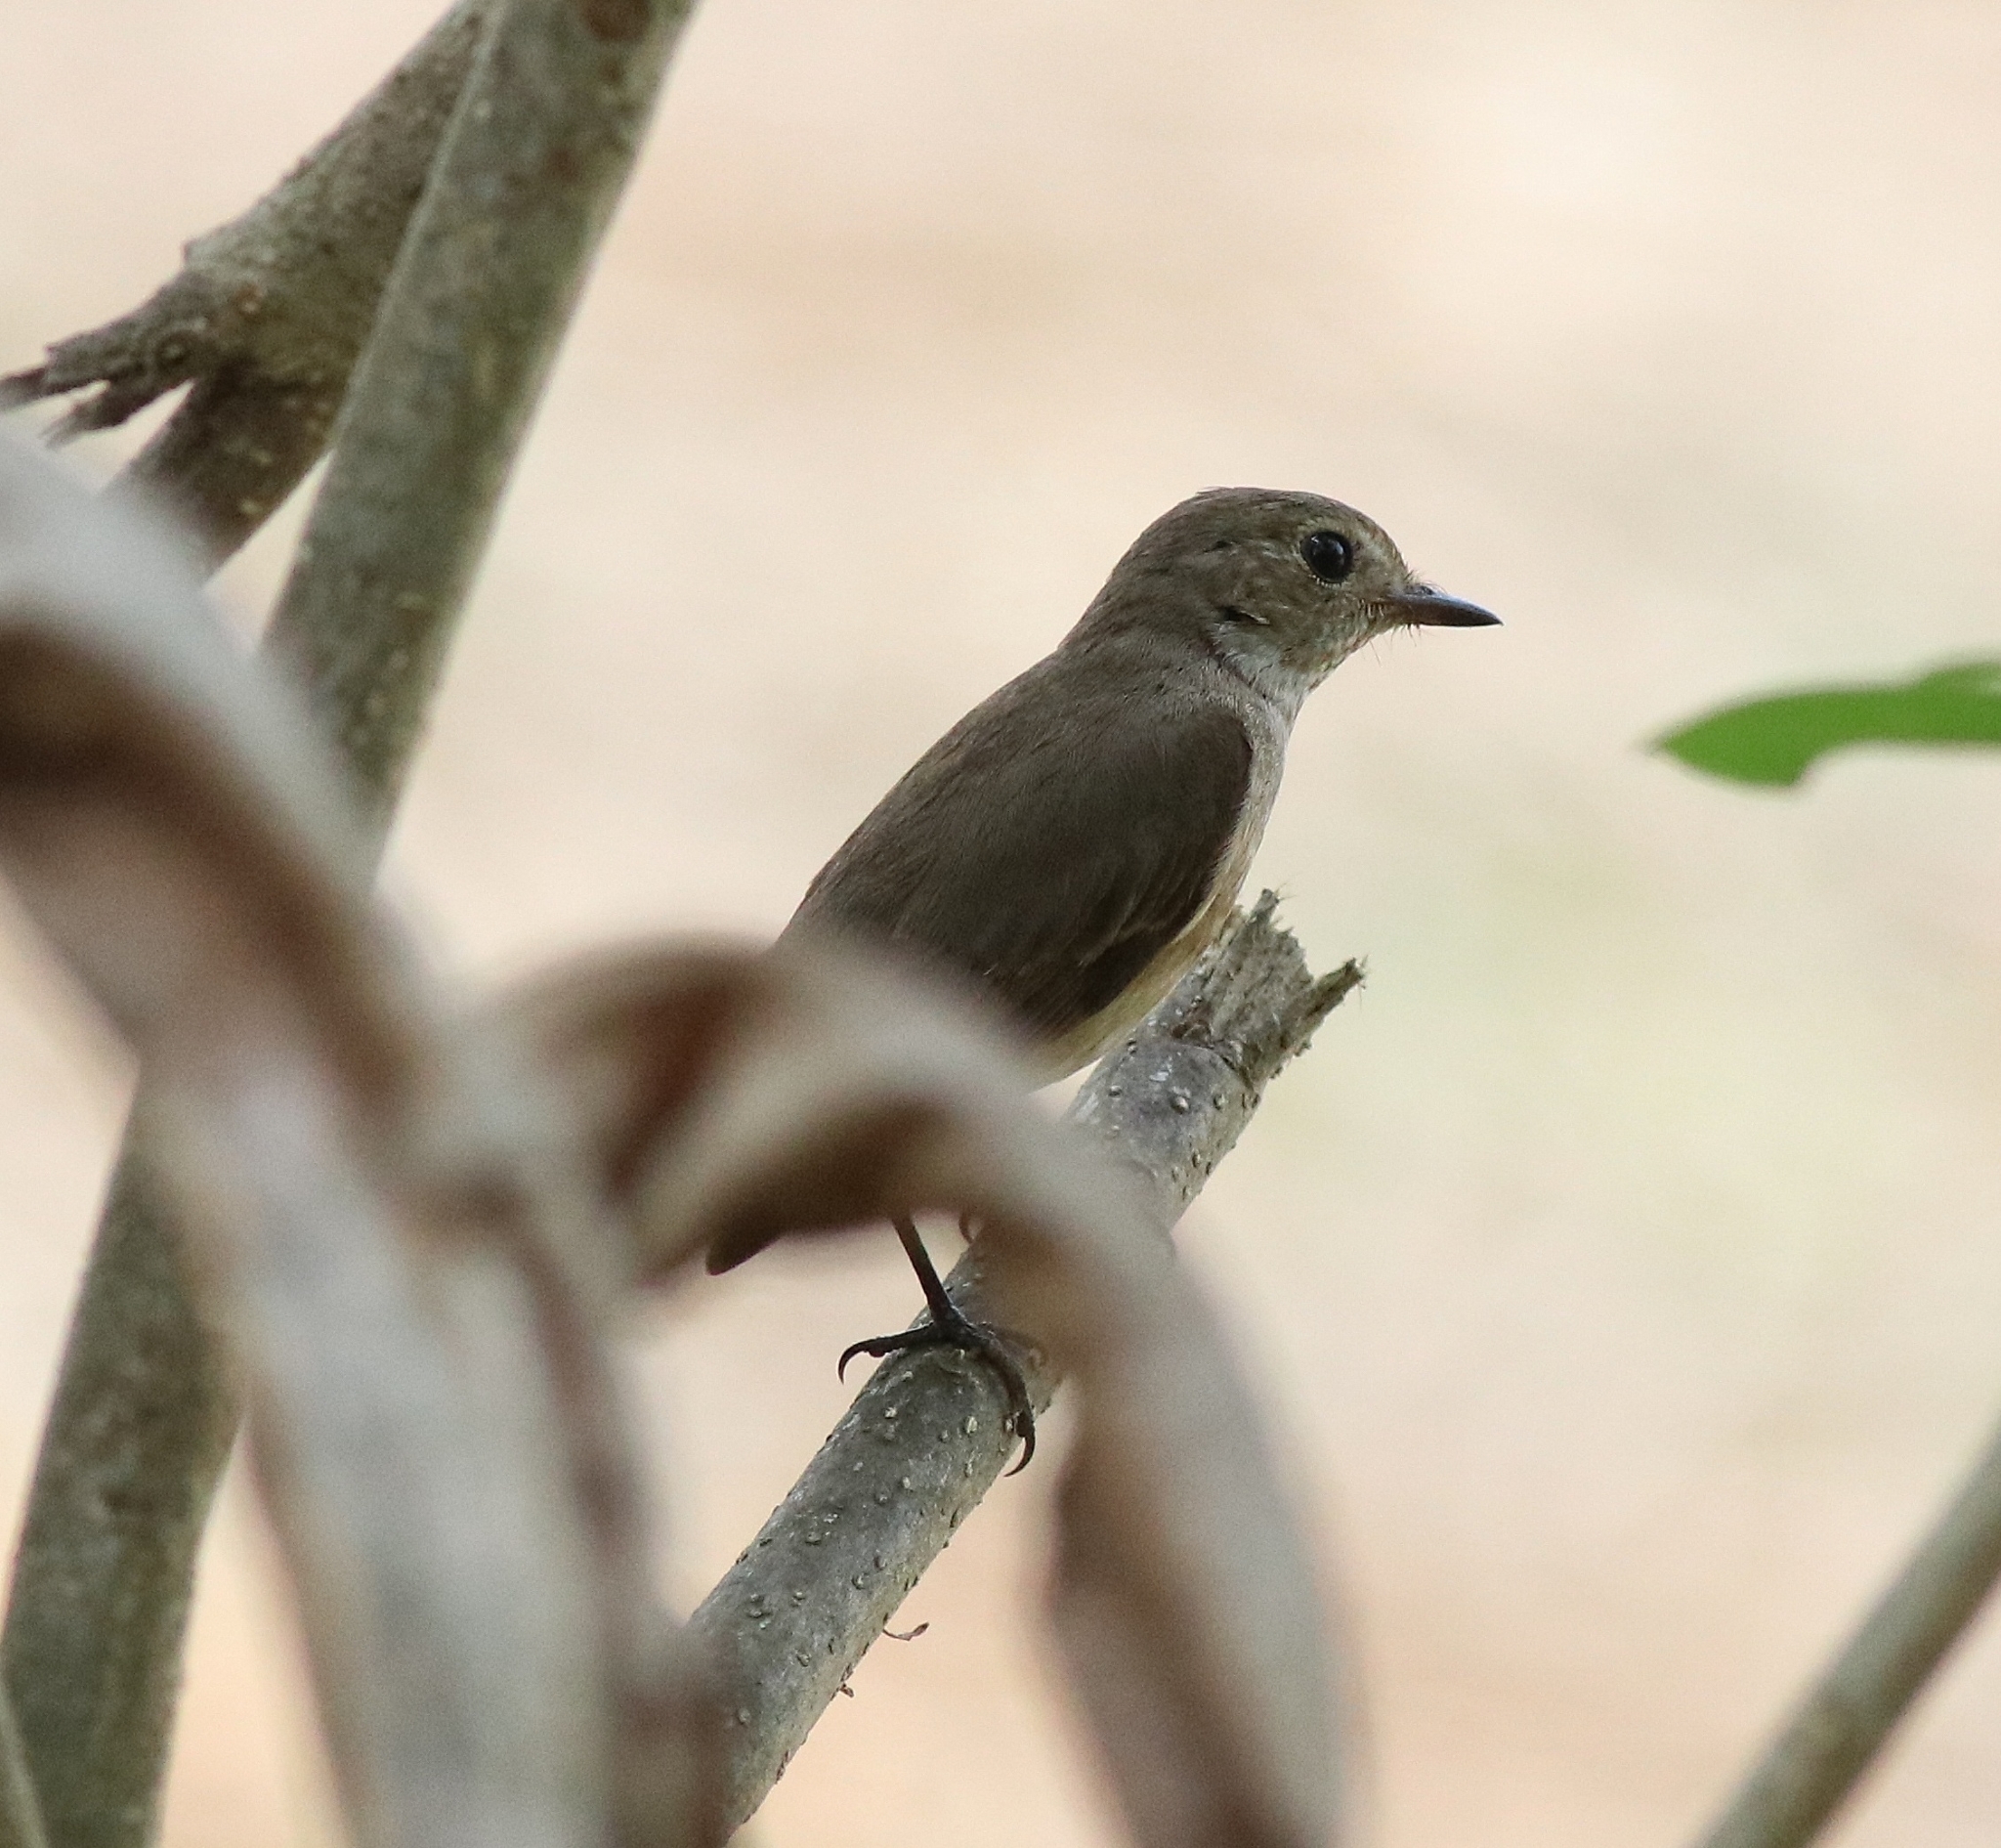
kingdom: Animalia
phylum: Chordata
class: Aves
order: Passeriformes
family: Muscicapidae
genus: Ficedula
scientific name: Ficedula albicilla
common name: Taiga flycatcher
